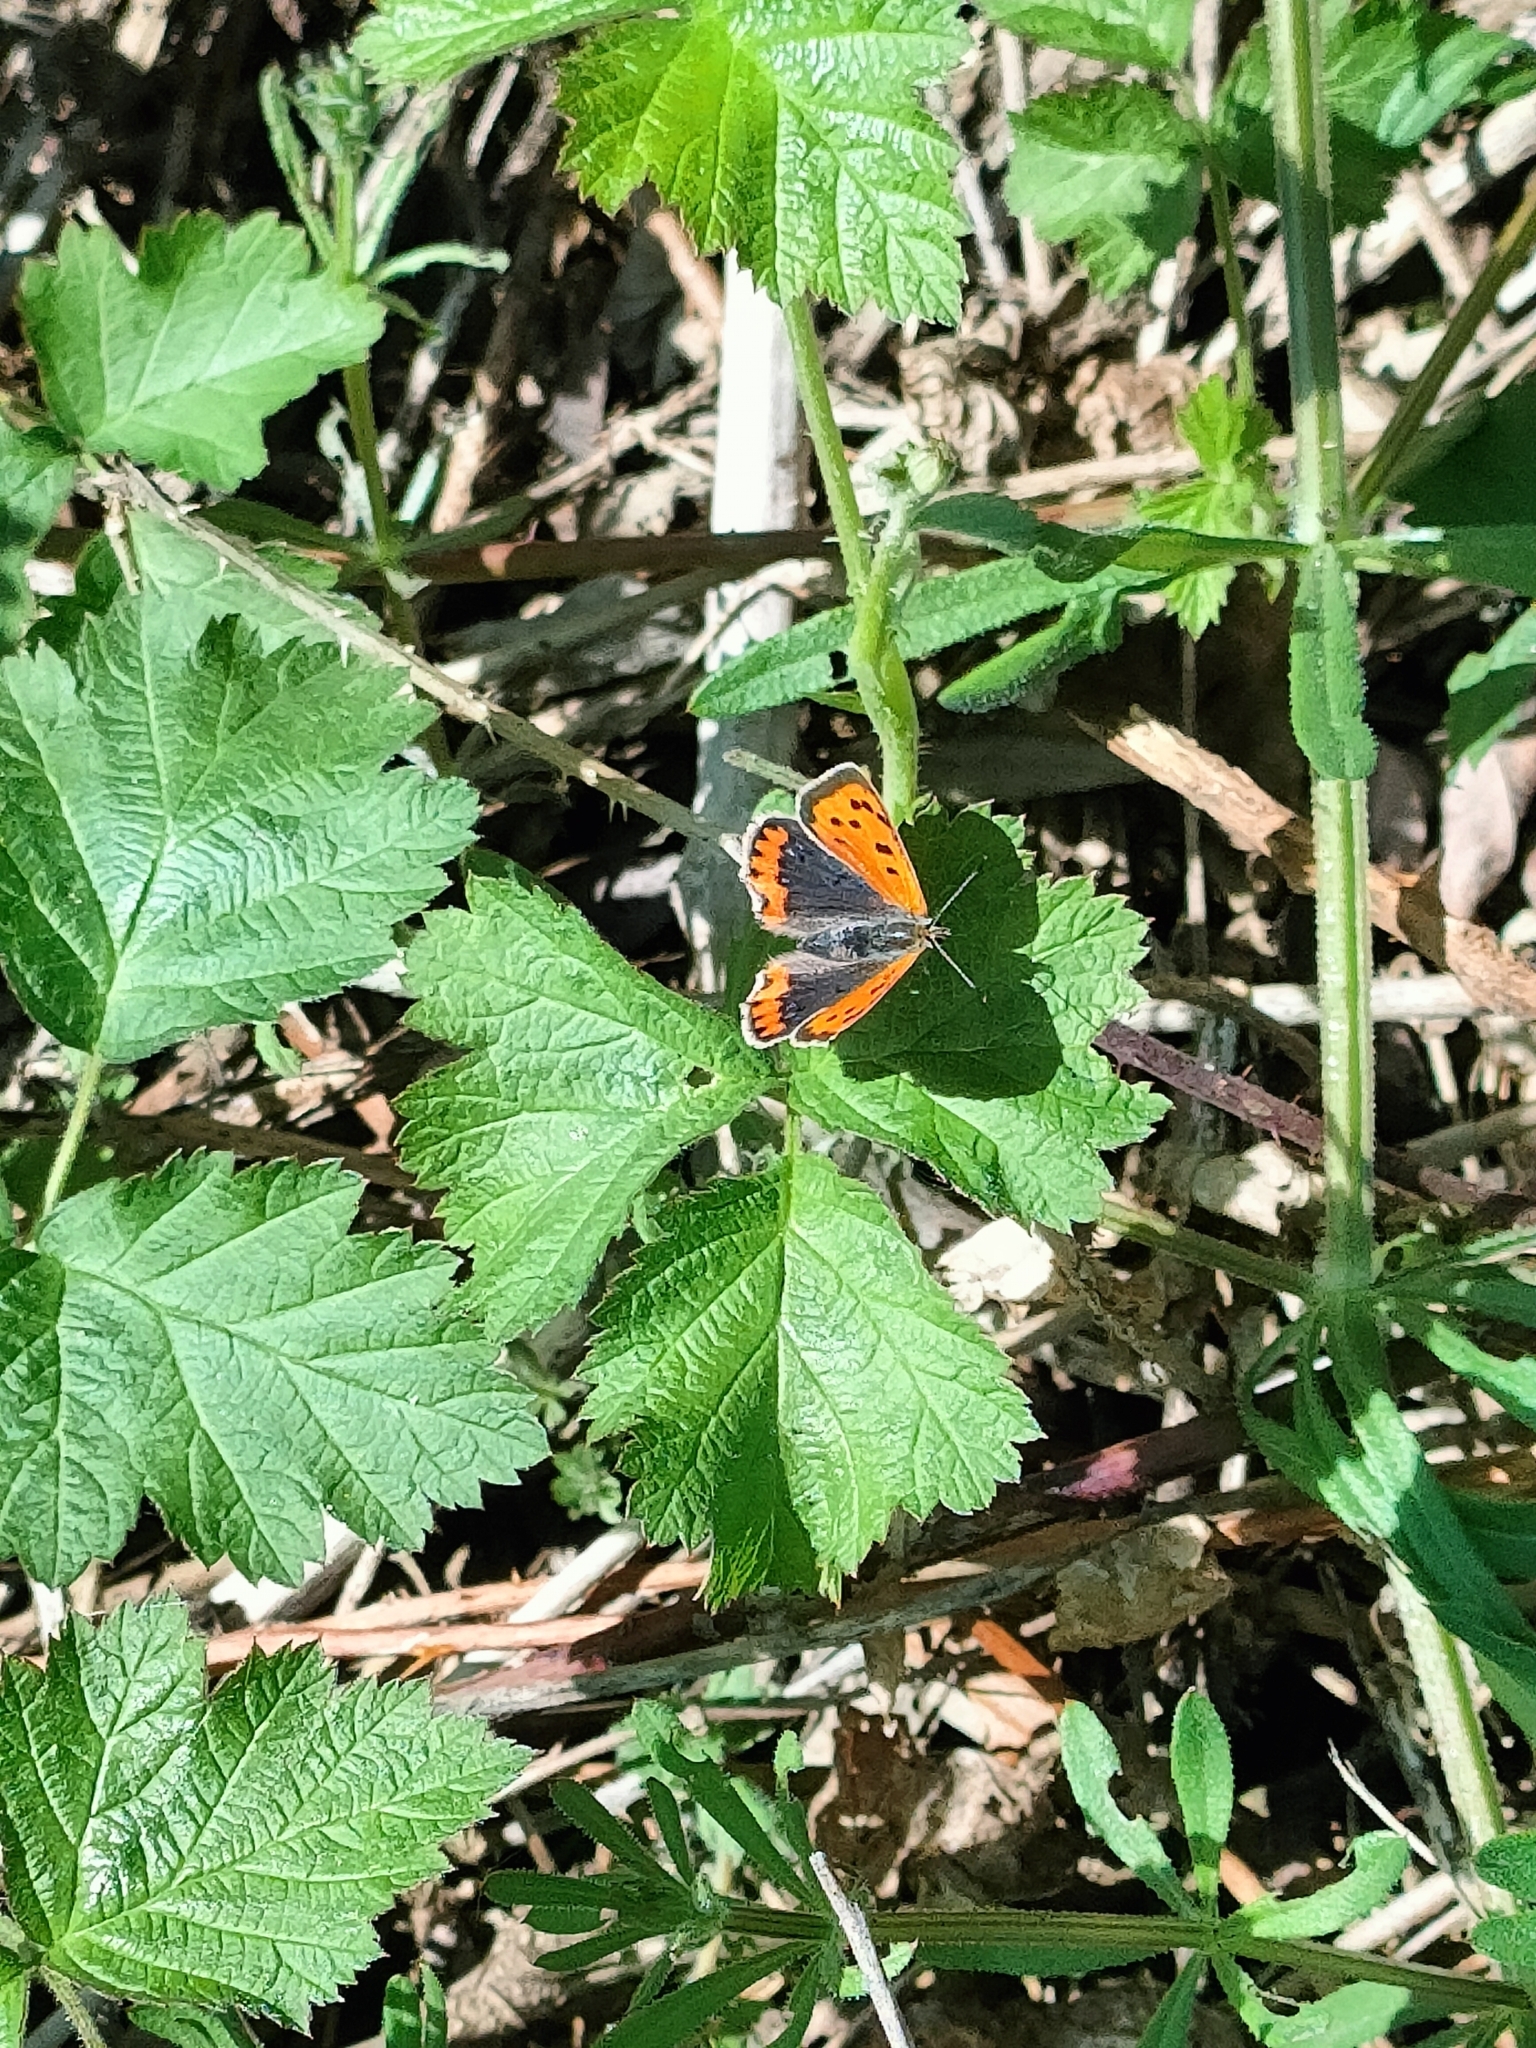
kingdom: Animalia
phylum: Arthropoda
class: Insecta
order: Lepidoptera
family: Lycaenidae
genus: Lycaena
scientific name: Lycaena phlaeas
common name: Small copper
